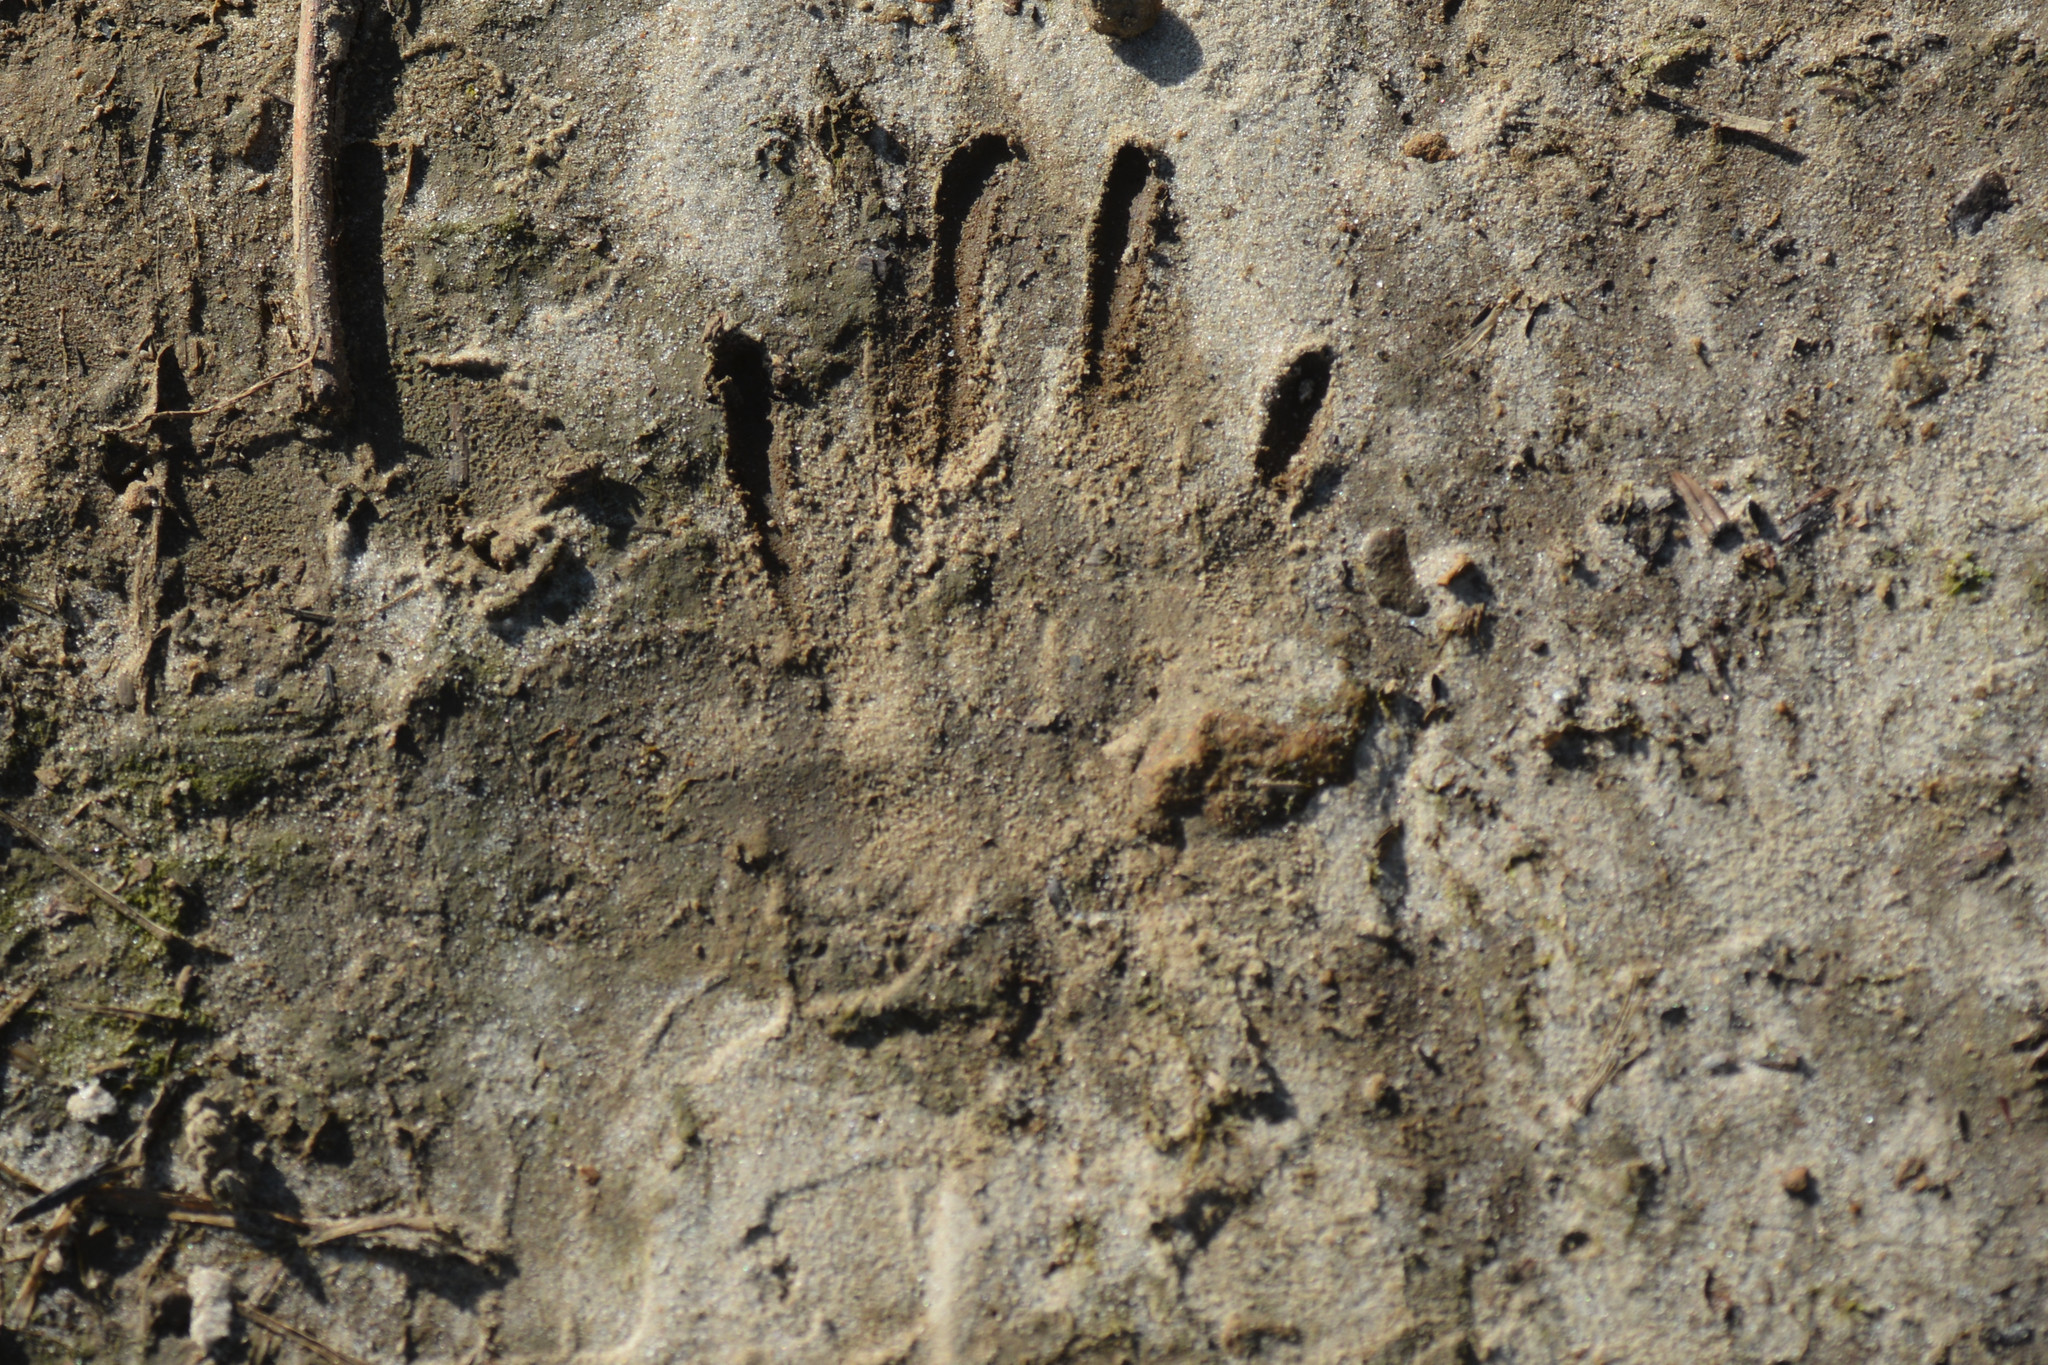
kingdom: Animalia
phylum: Chordata
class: Mammalia
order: Carnivora
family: Mustelidae
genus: Meles
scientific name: Meles meles
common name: Eurasian badger
